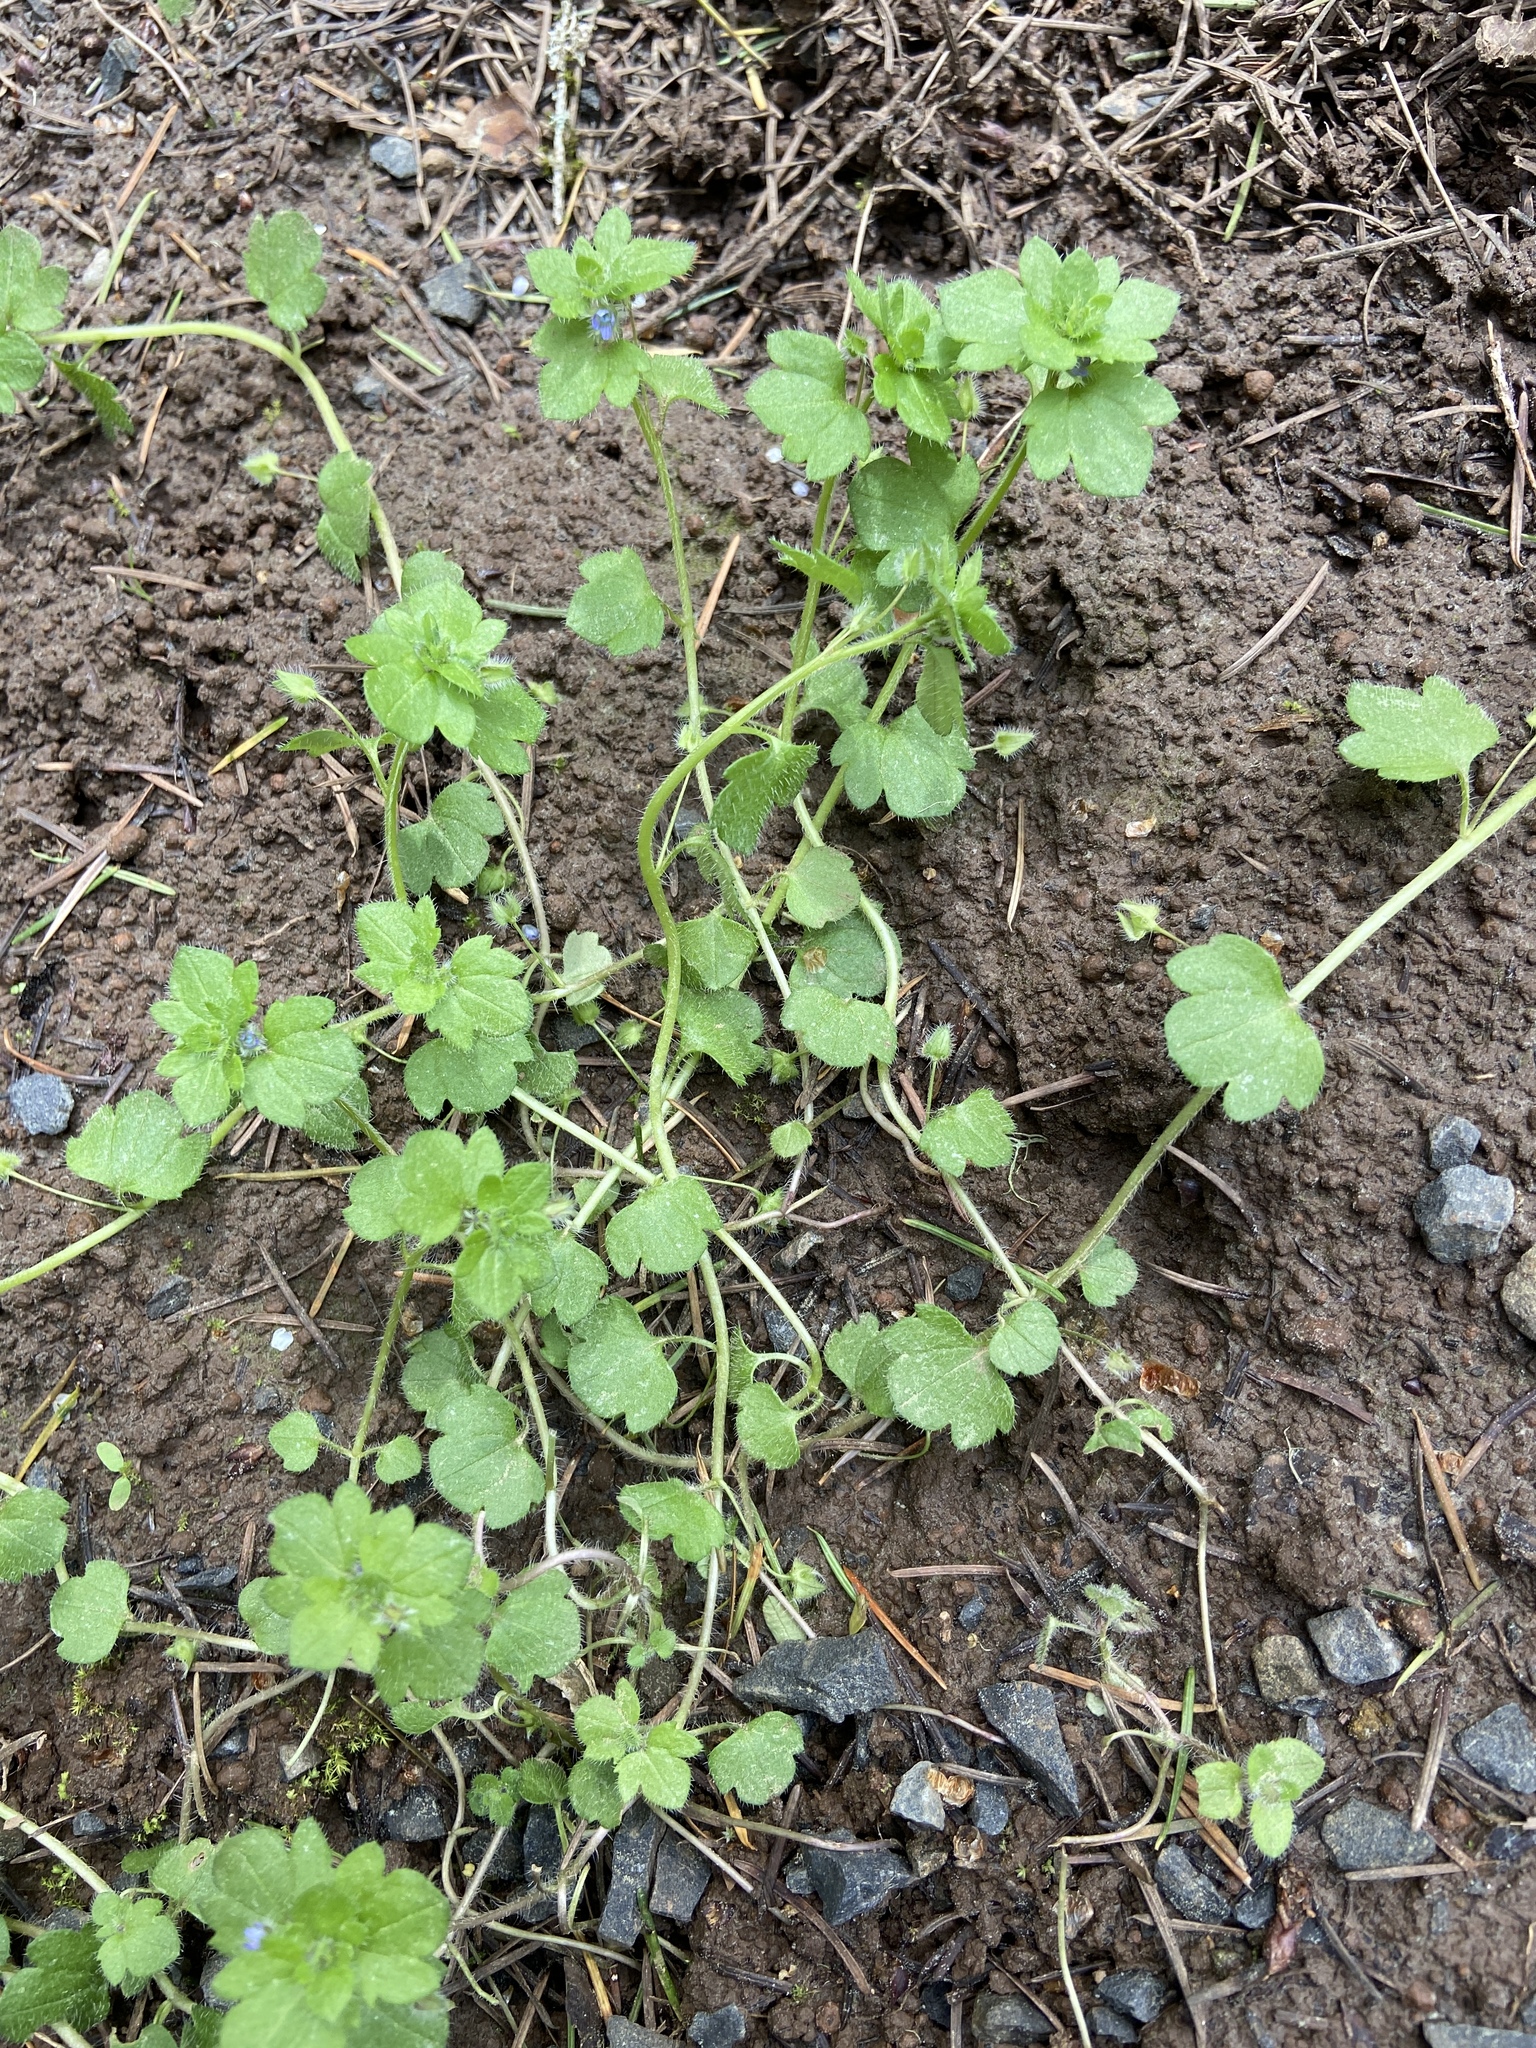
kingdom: Plantae
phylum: Tracheophyta
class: Magnoliopsida
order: Lamiales
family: Plantaginaceae
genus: Veronica
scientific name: Veronica hederifolia
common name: Ivy-leaved speedwell
